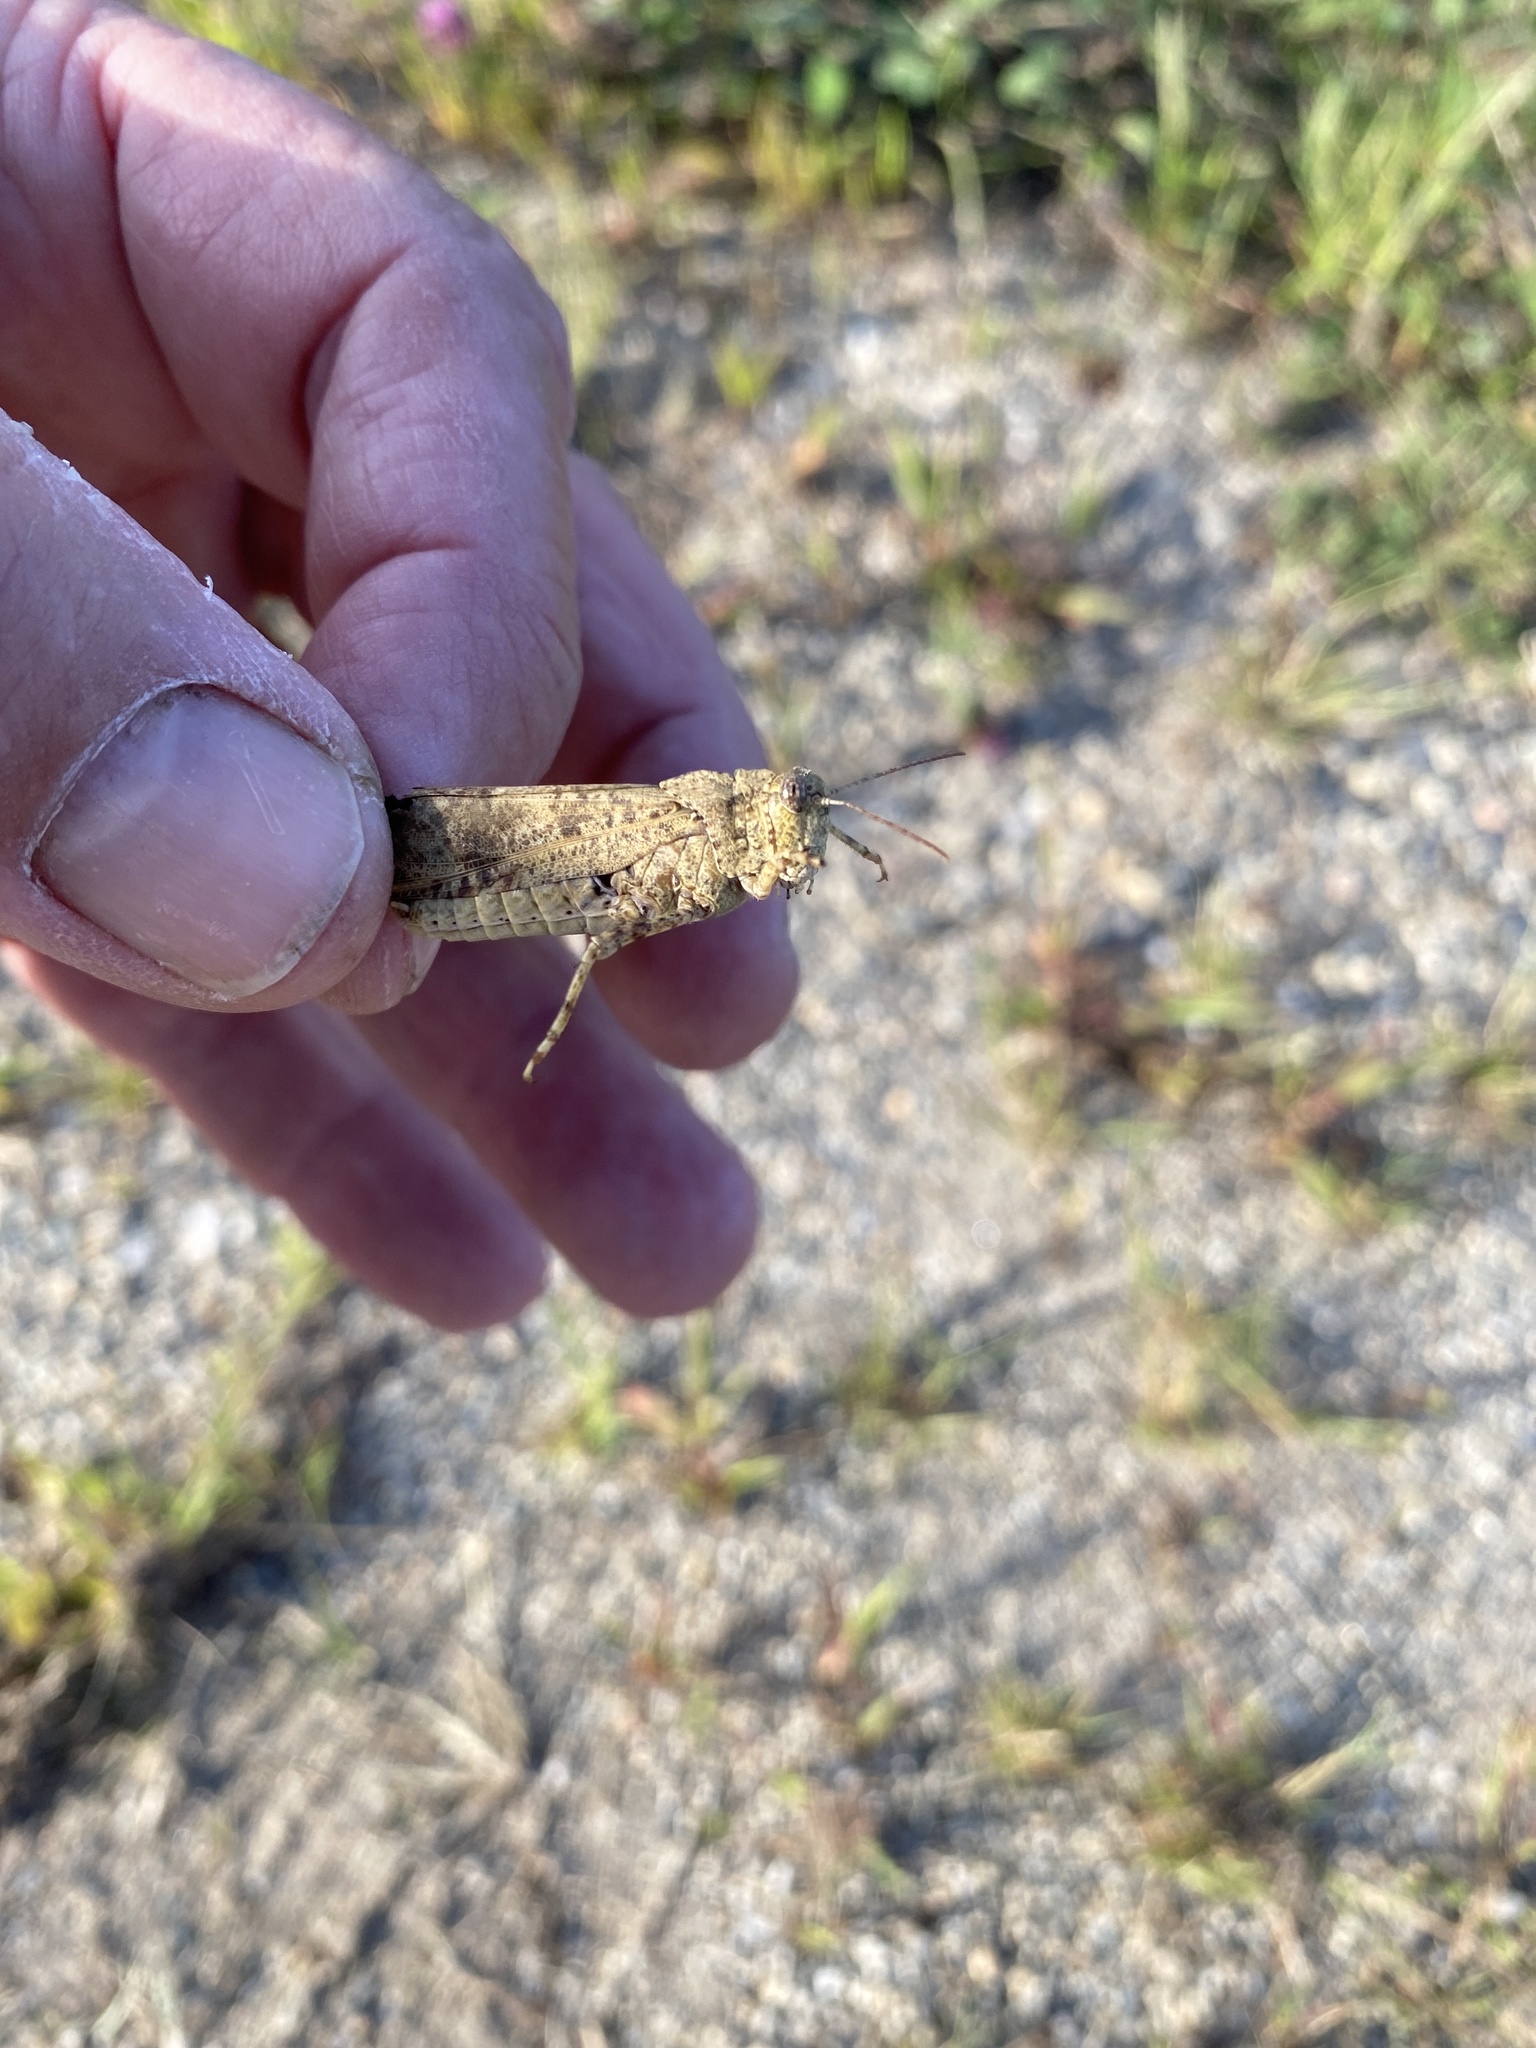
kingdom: Animalia
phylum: Arthropoda
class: Insecta
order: Orthoptera
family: Acrididae
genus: Dissosteira
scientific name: Dissosteira carolina
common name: Carolina grasshopper
